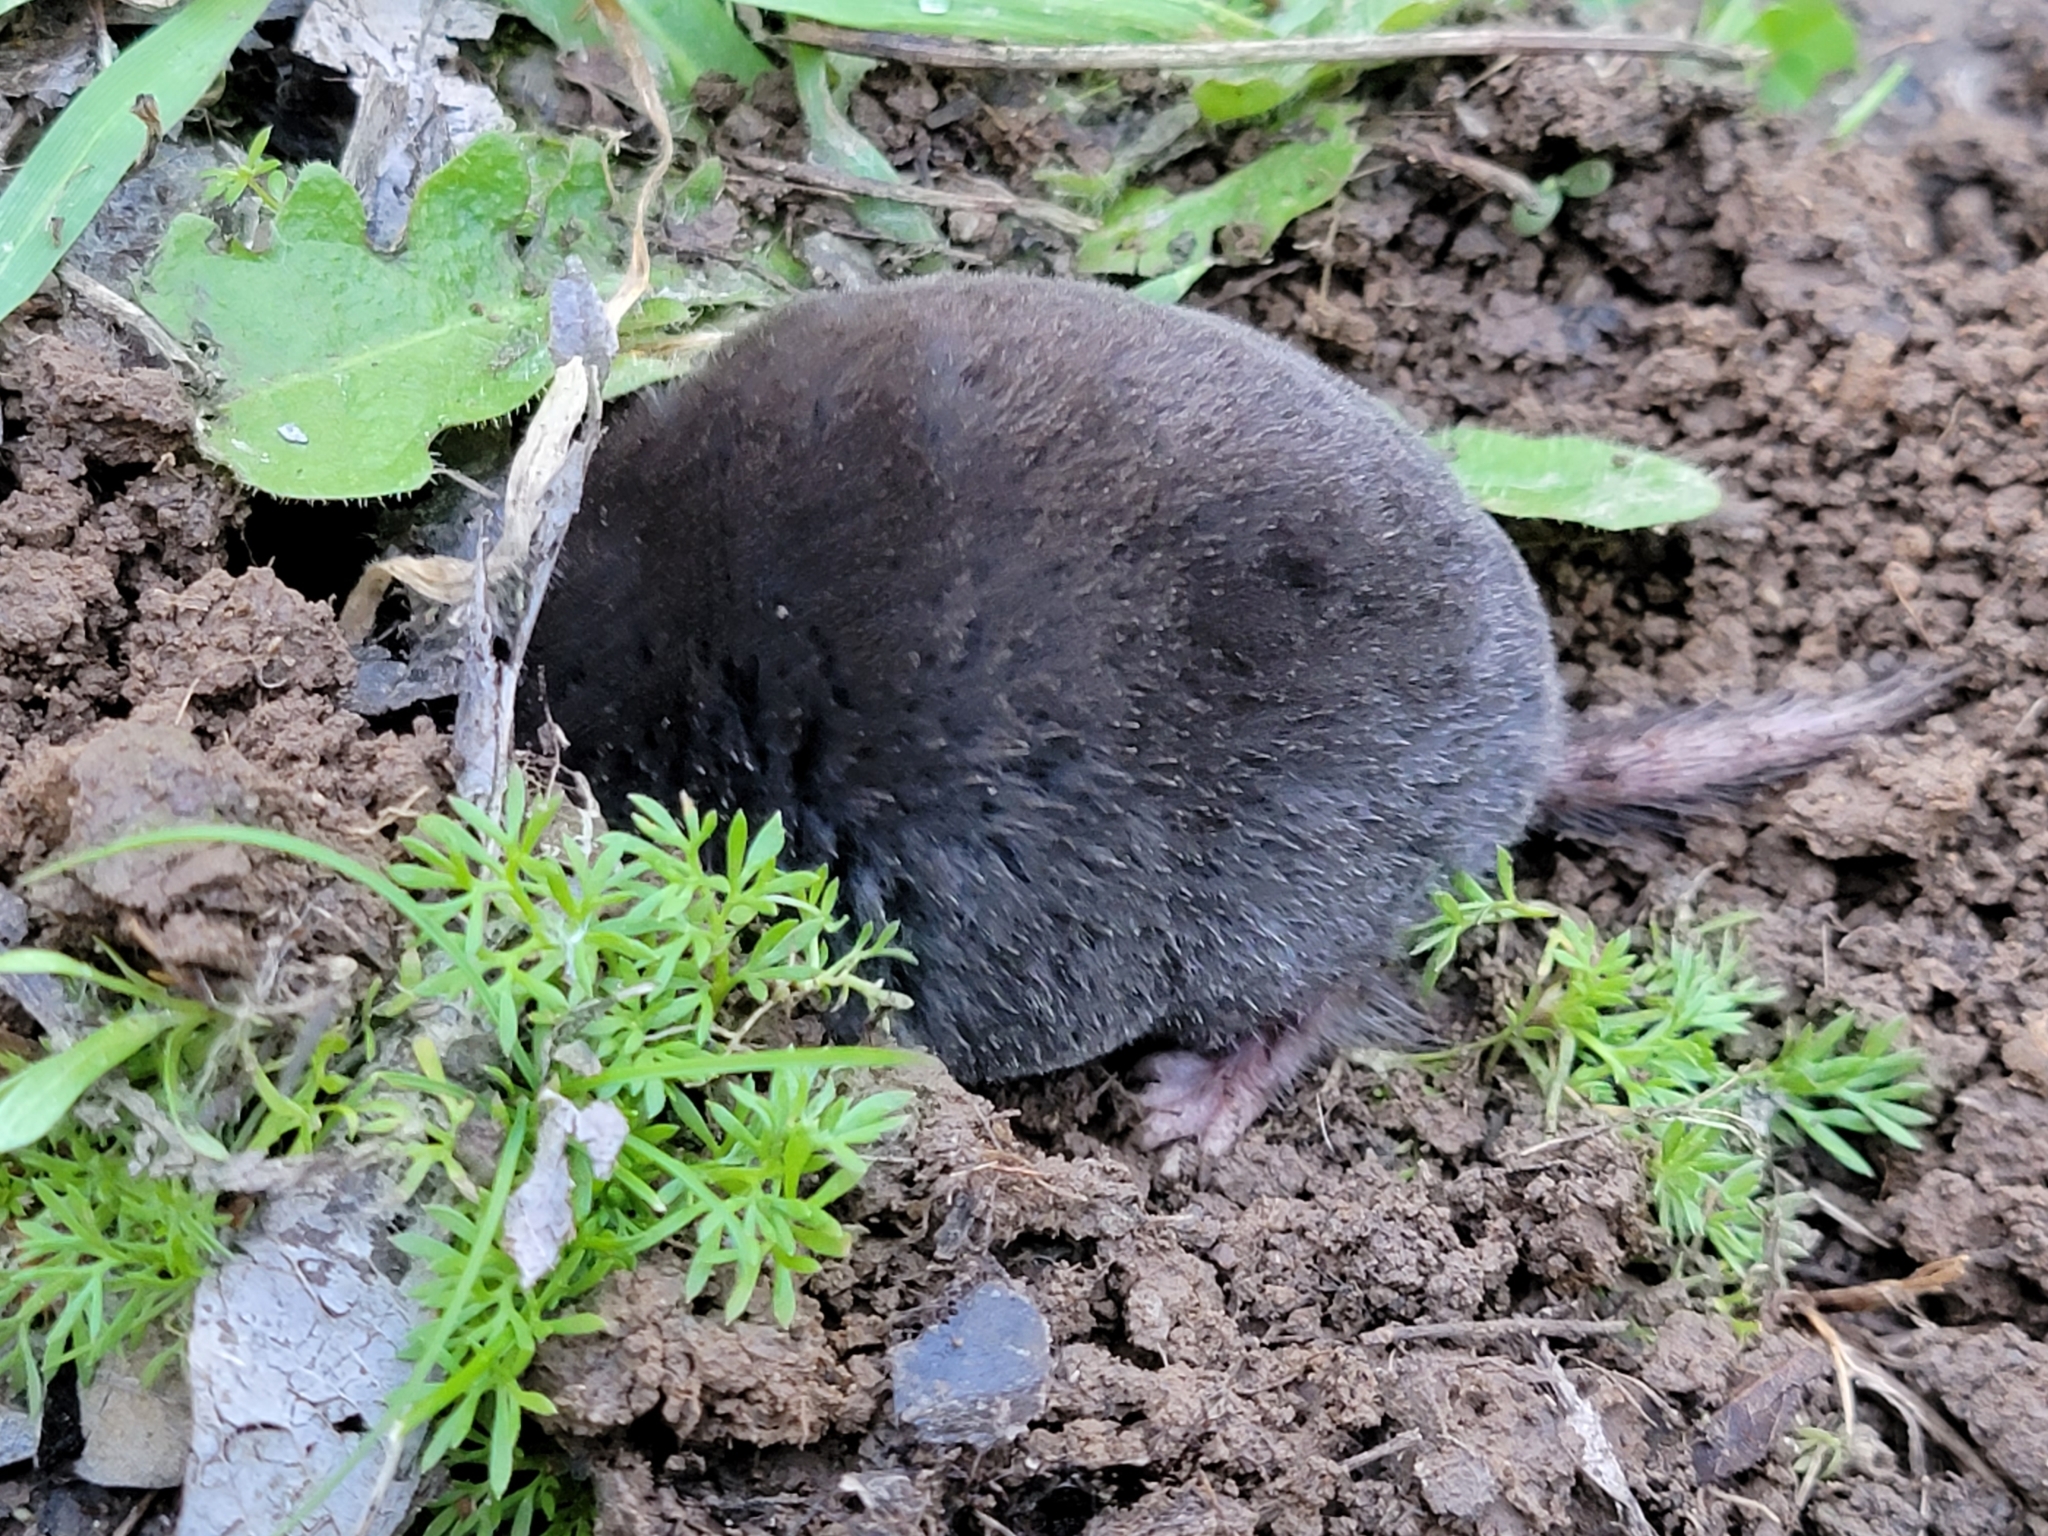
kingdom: Animalia
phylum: Chordata
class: Mammalia
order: Soricomorpha
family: Talpidae
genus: Scapanus
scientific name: Scapanus latimanus
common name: Broad-footed mole
